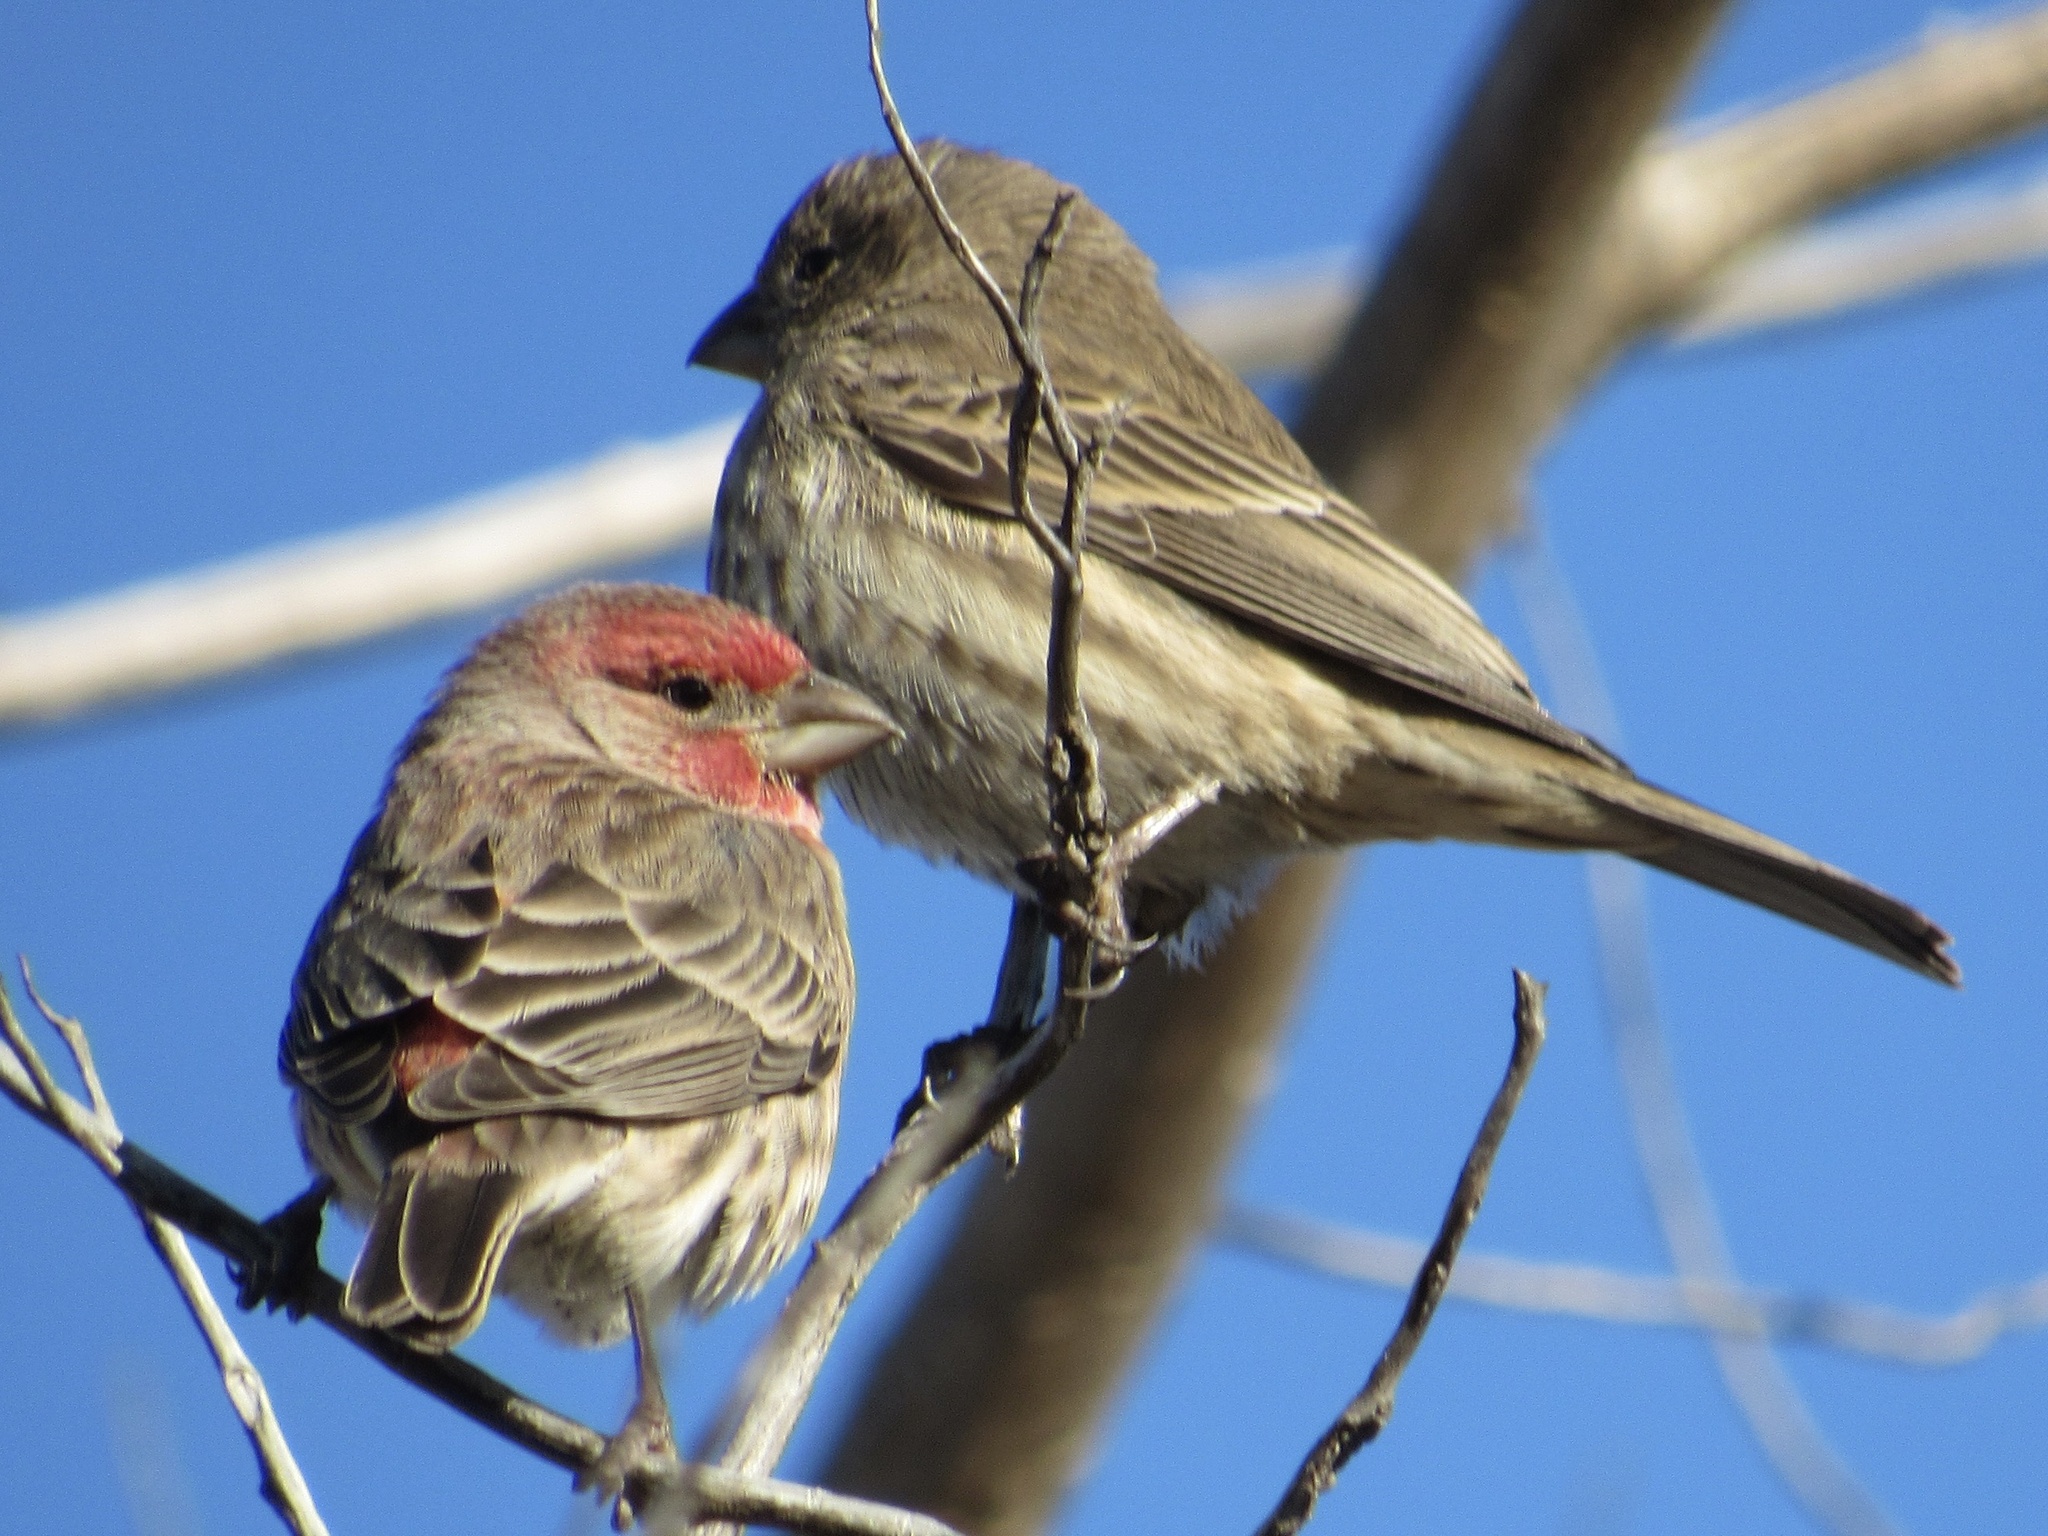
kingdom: Animalia
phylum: Chordata
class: Aves
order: Passeriformes
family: Fringillidae
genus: Haemorhous
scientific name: Haemorhous mexicanus
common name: House finch
